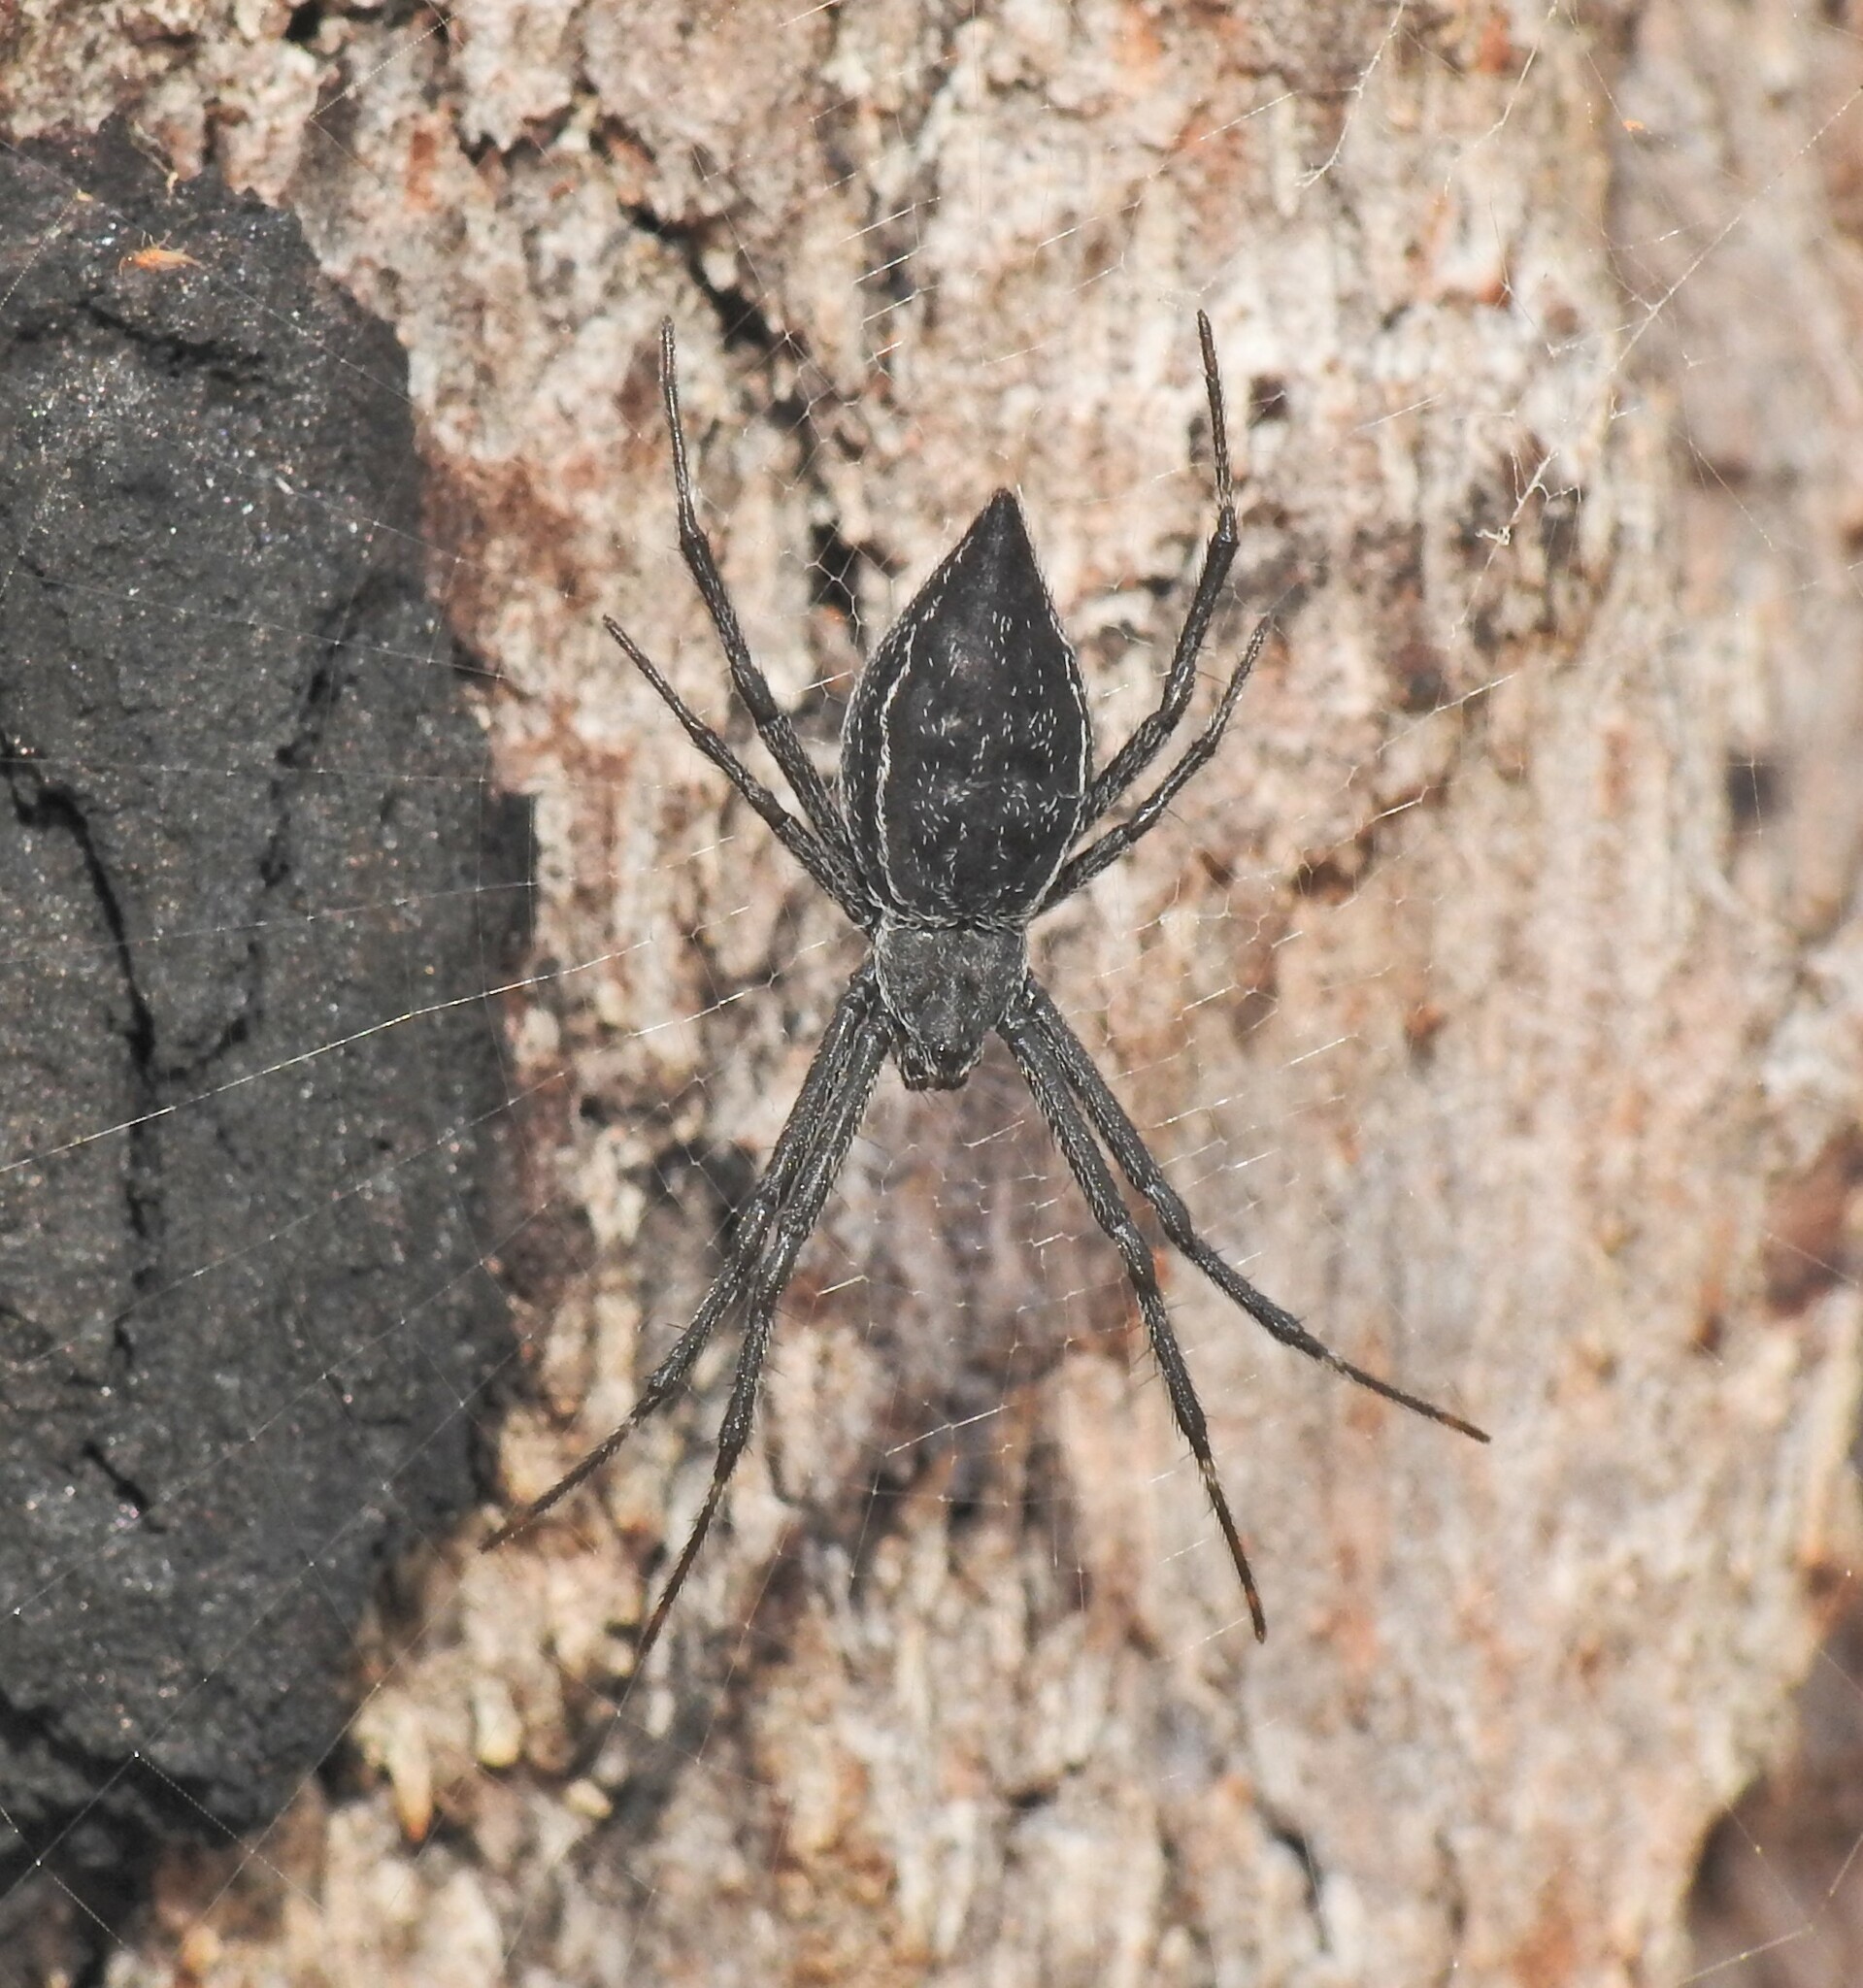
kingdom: Animalia
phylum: Arthropoda
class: Arachnida
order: Araneae
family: Araneidae
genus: Argiope
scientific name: Argiope ocyaloides
